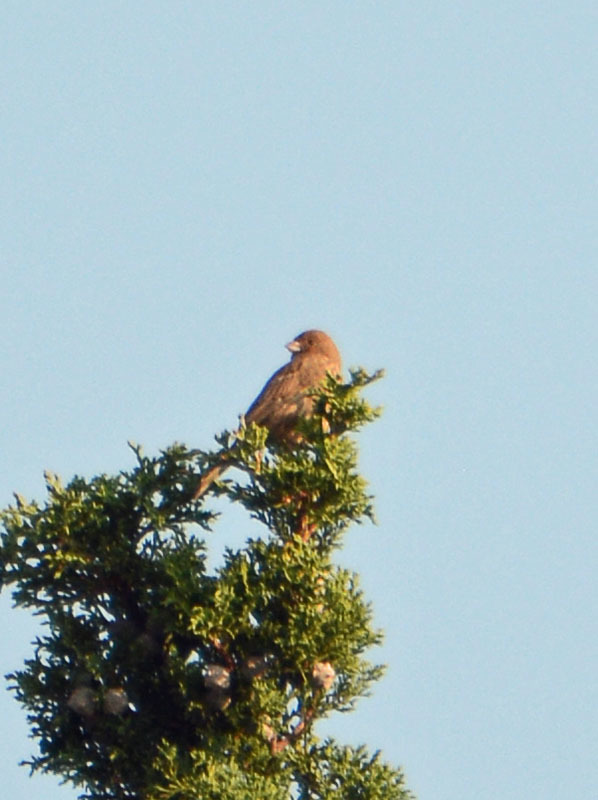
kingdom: Animalia
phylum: Chordata
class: Aves
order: Passeriformes
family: Fringillidae
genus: Haemorhous
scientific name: Haemorhous mexicanus
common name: House finch
